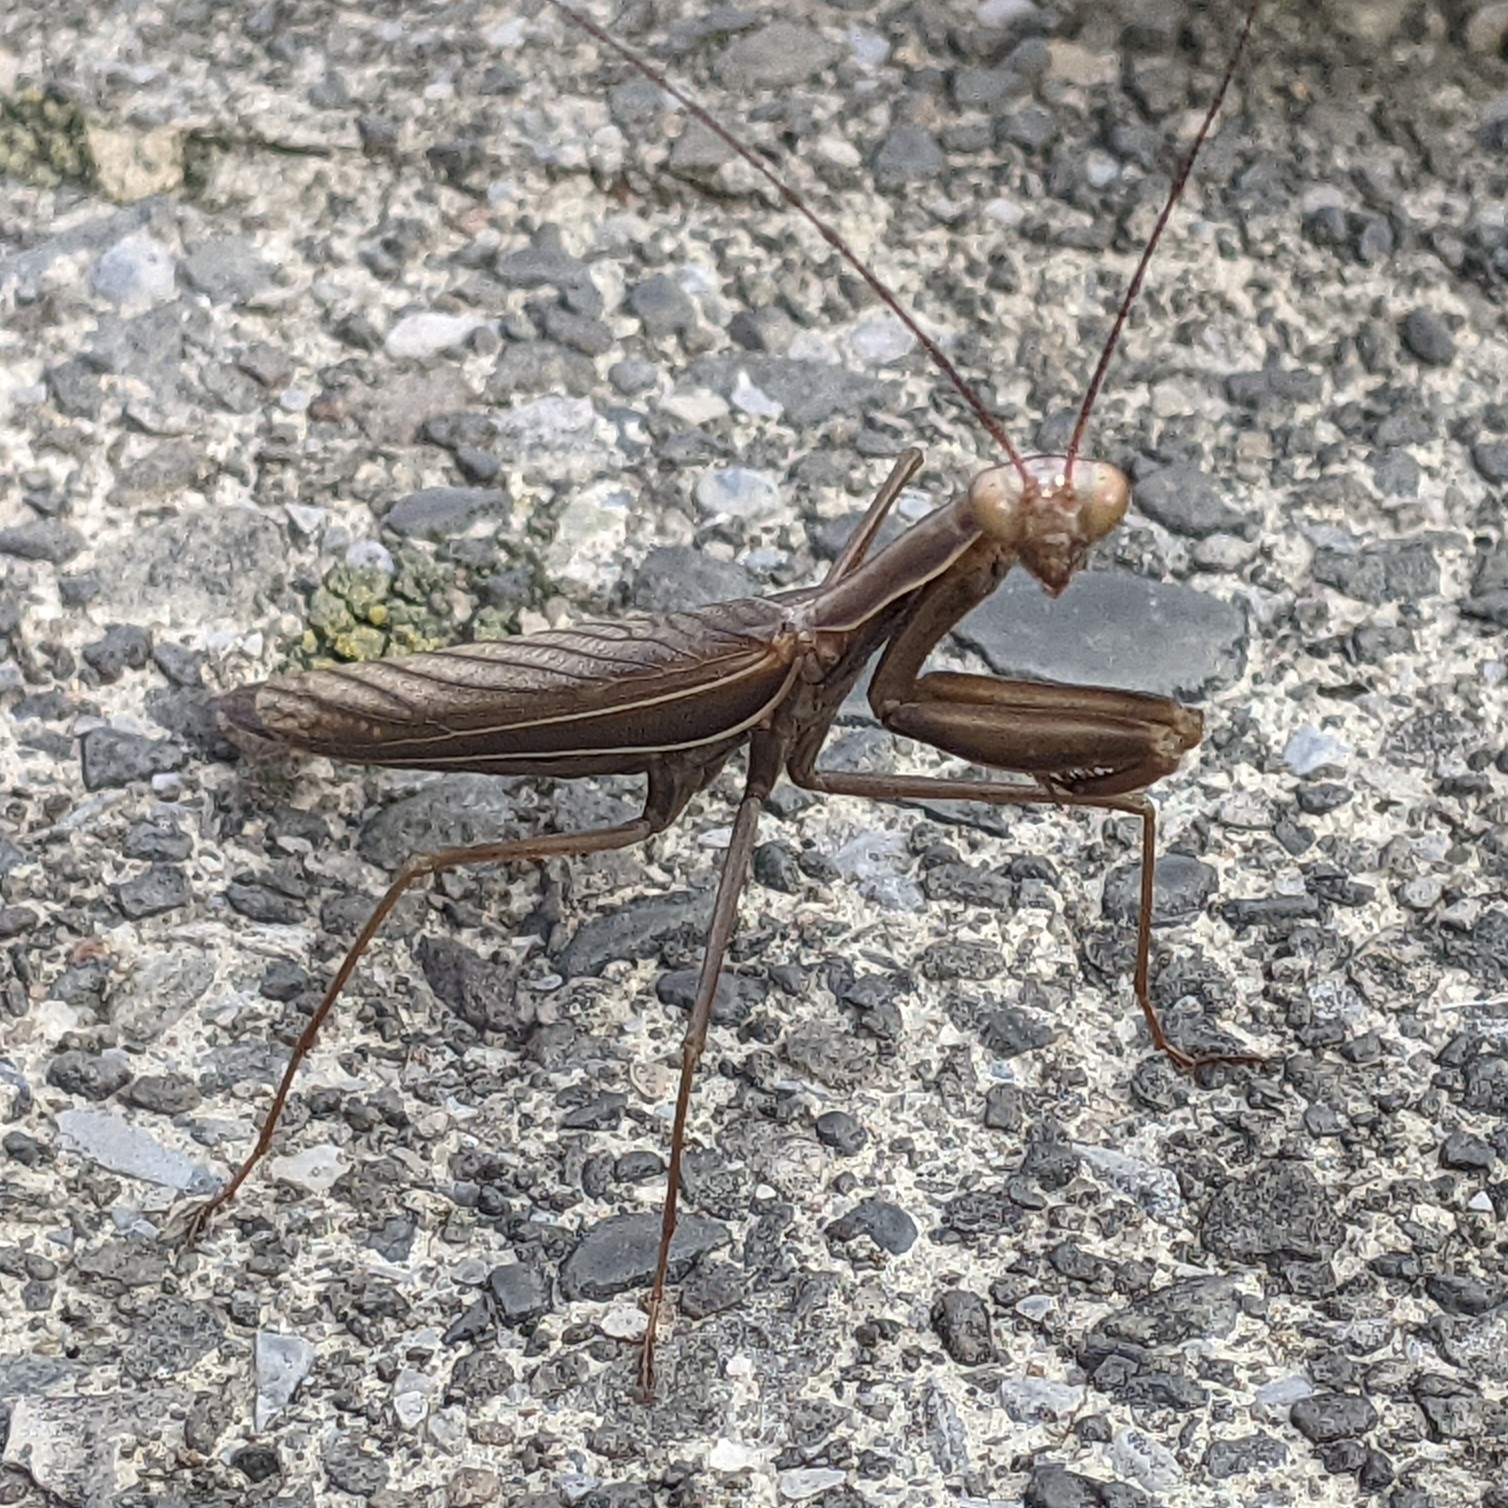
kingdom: Animalia
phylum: Arthropoda
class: Insecta
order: Mantodea
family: Mantidae
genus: Mantis
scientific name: Mantis religiosa
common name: Praying mantis
